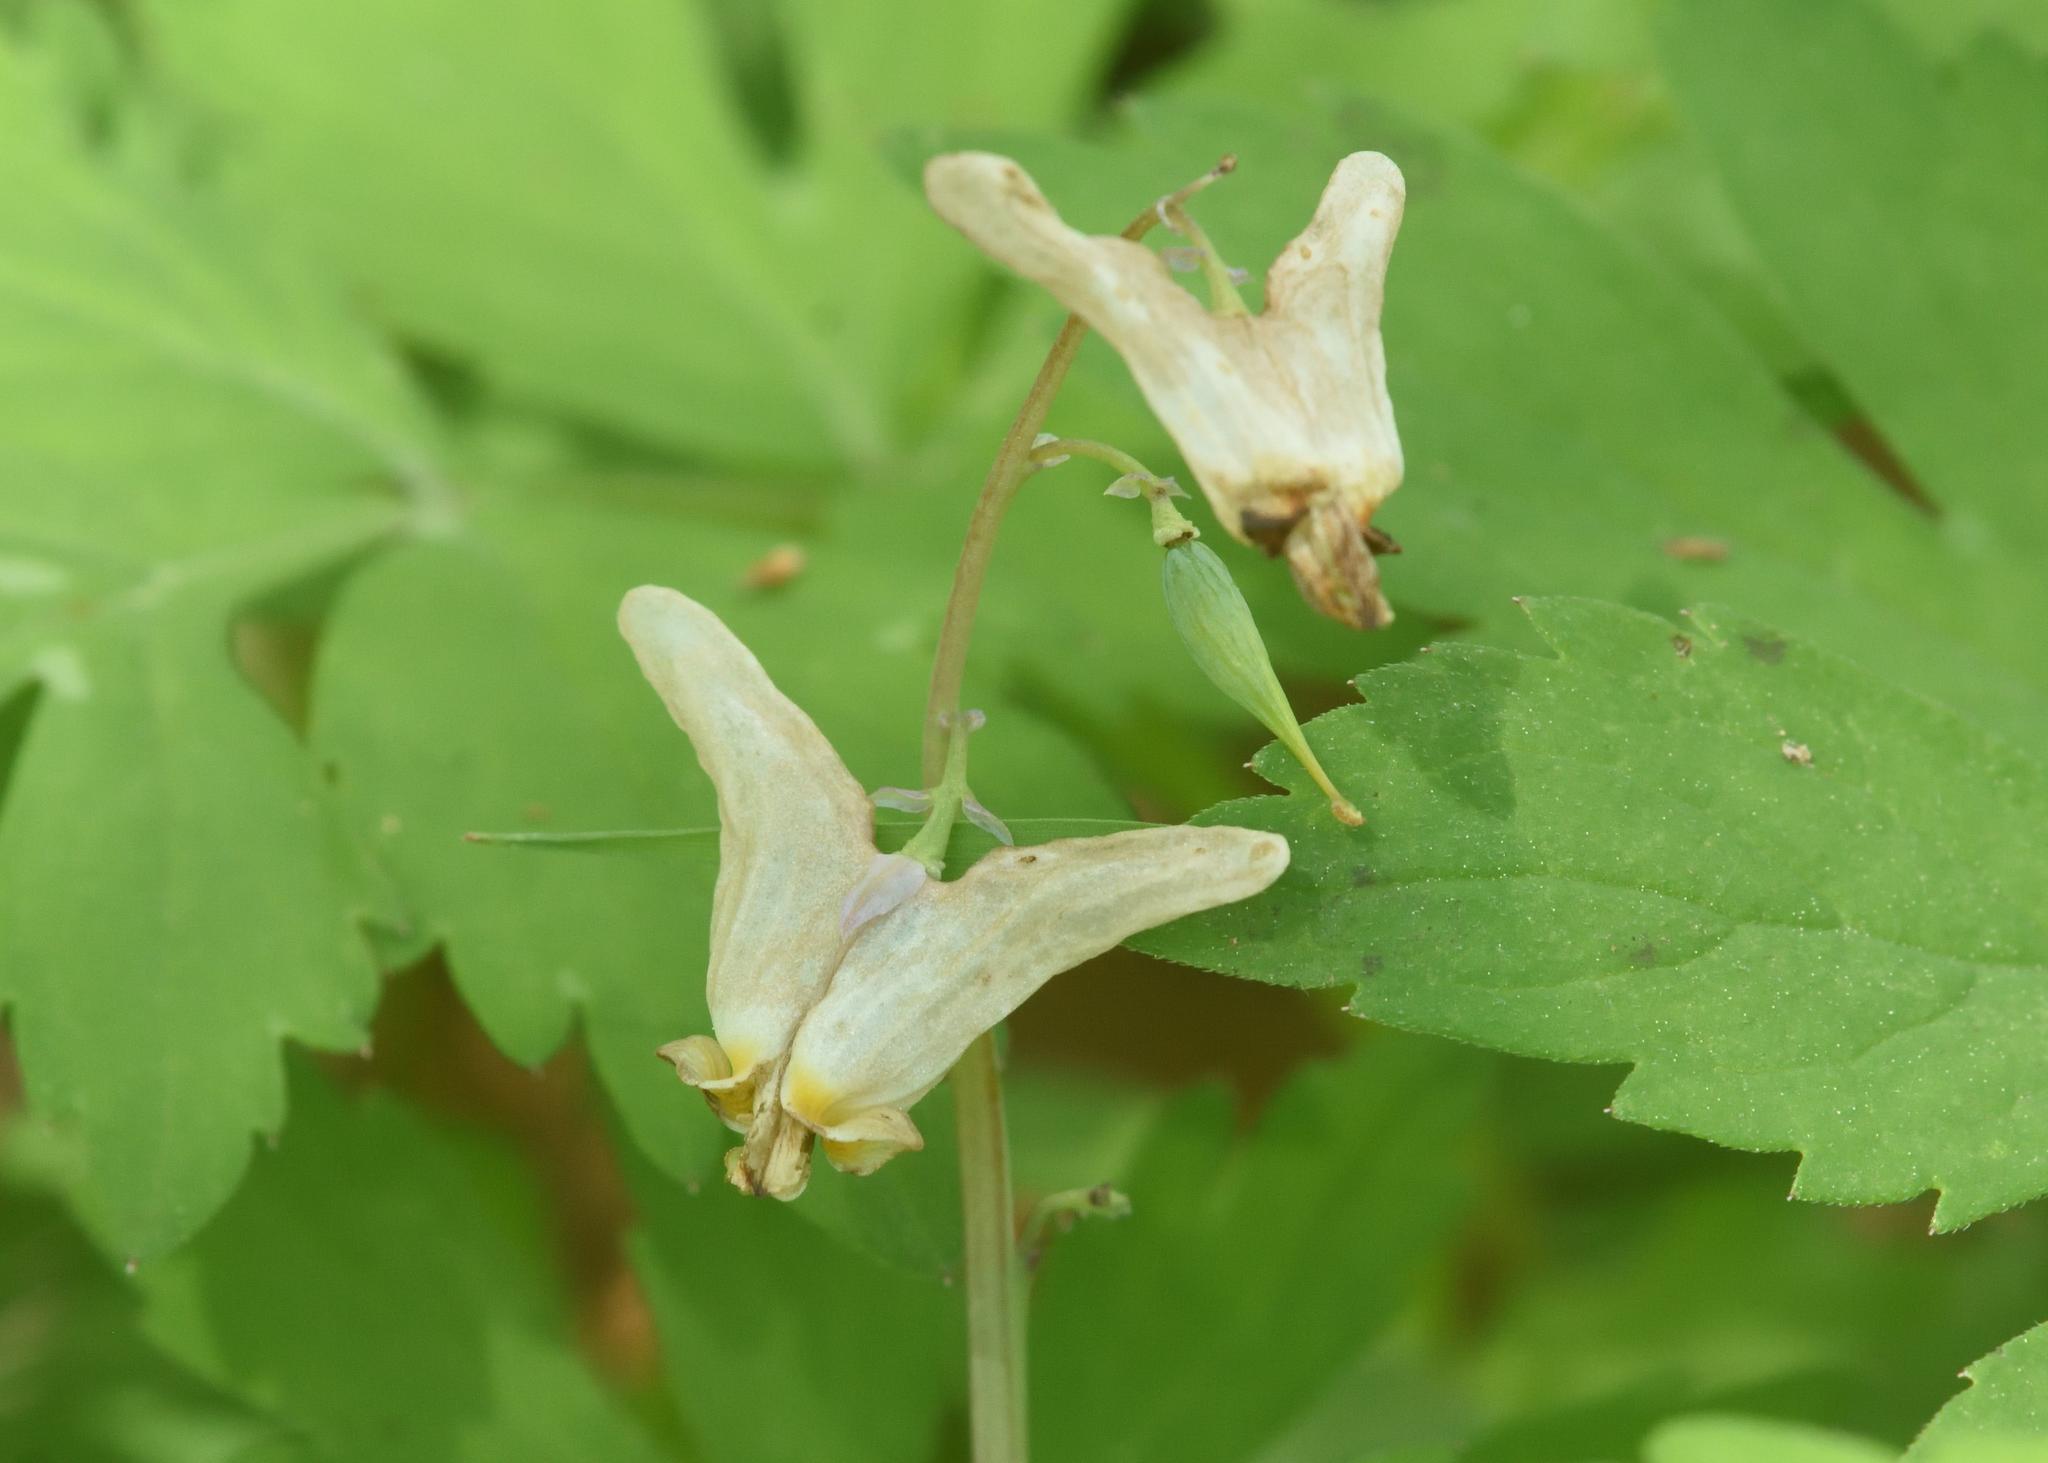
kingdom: Plantae
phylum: Tracheophyta
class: Magnoliopsida
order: Ranunculales
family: Papaveraceae
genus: Dicentra
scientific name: Dicentra cucullaria
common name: Dutchman's breeches
